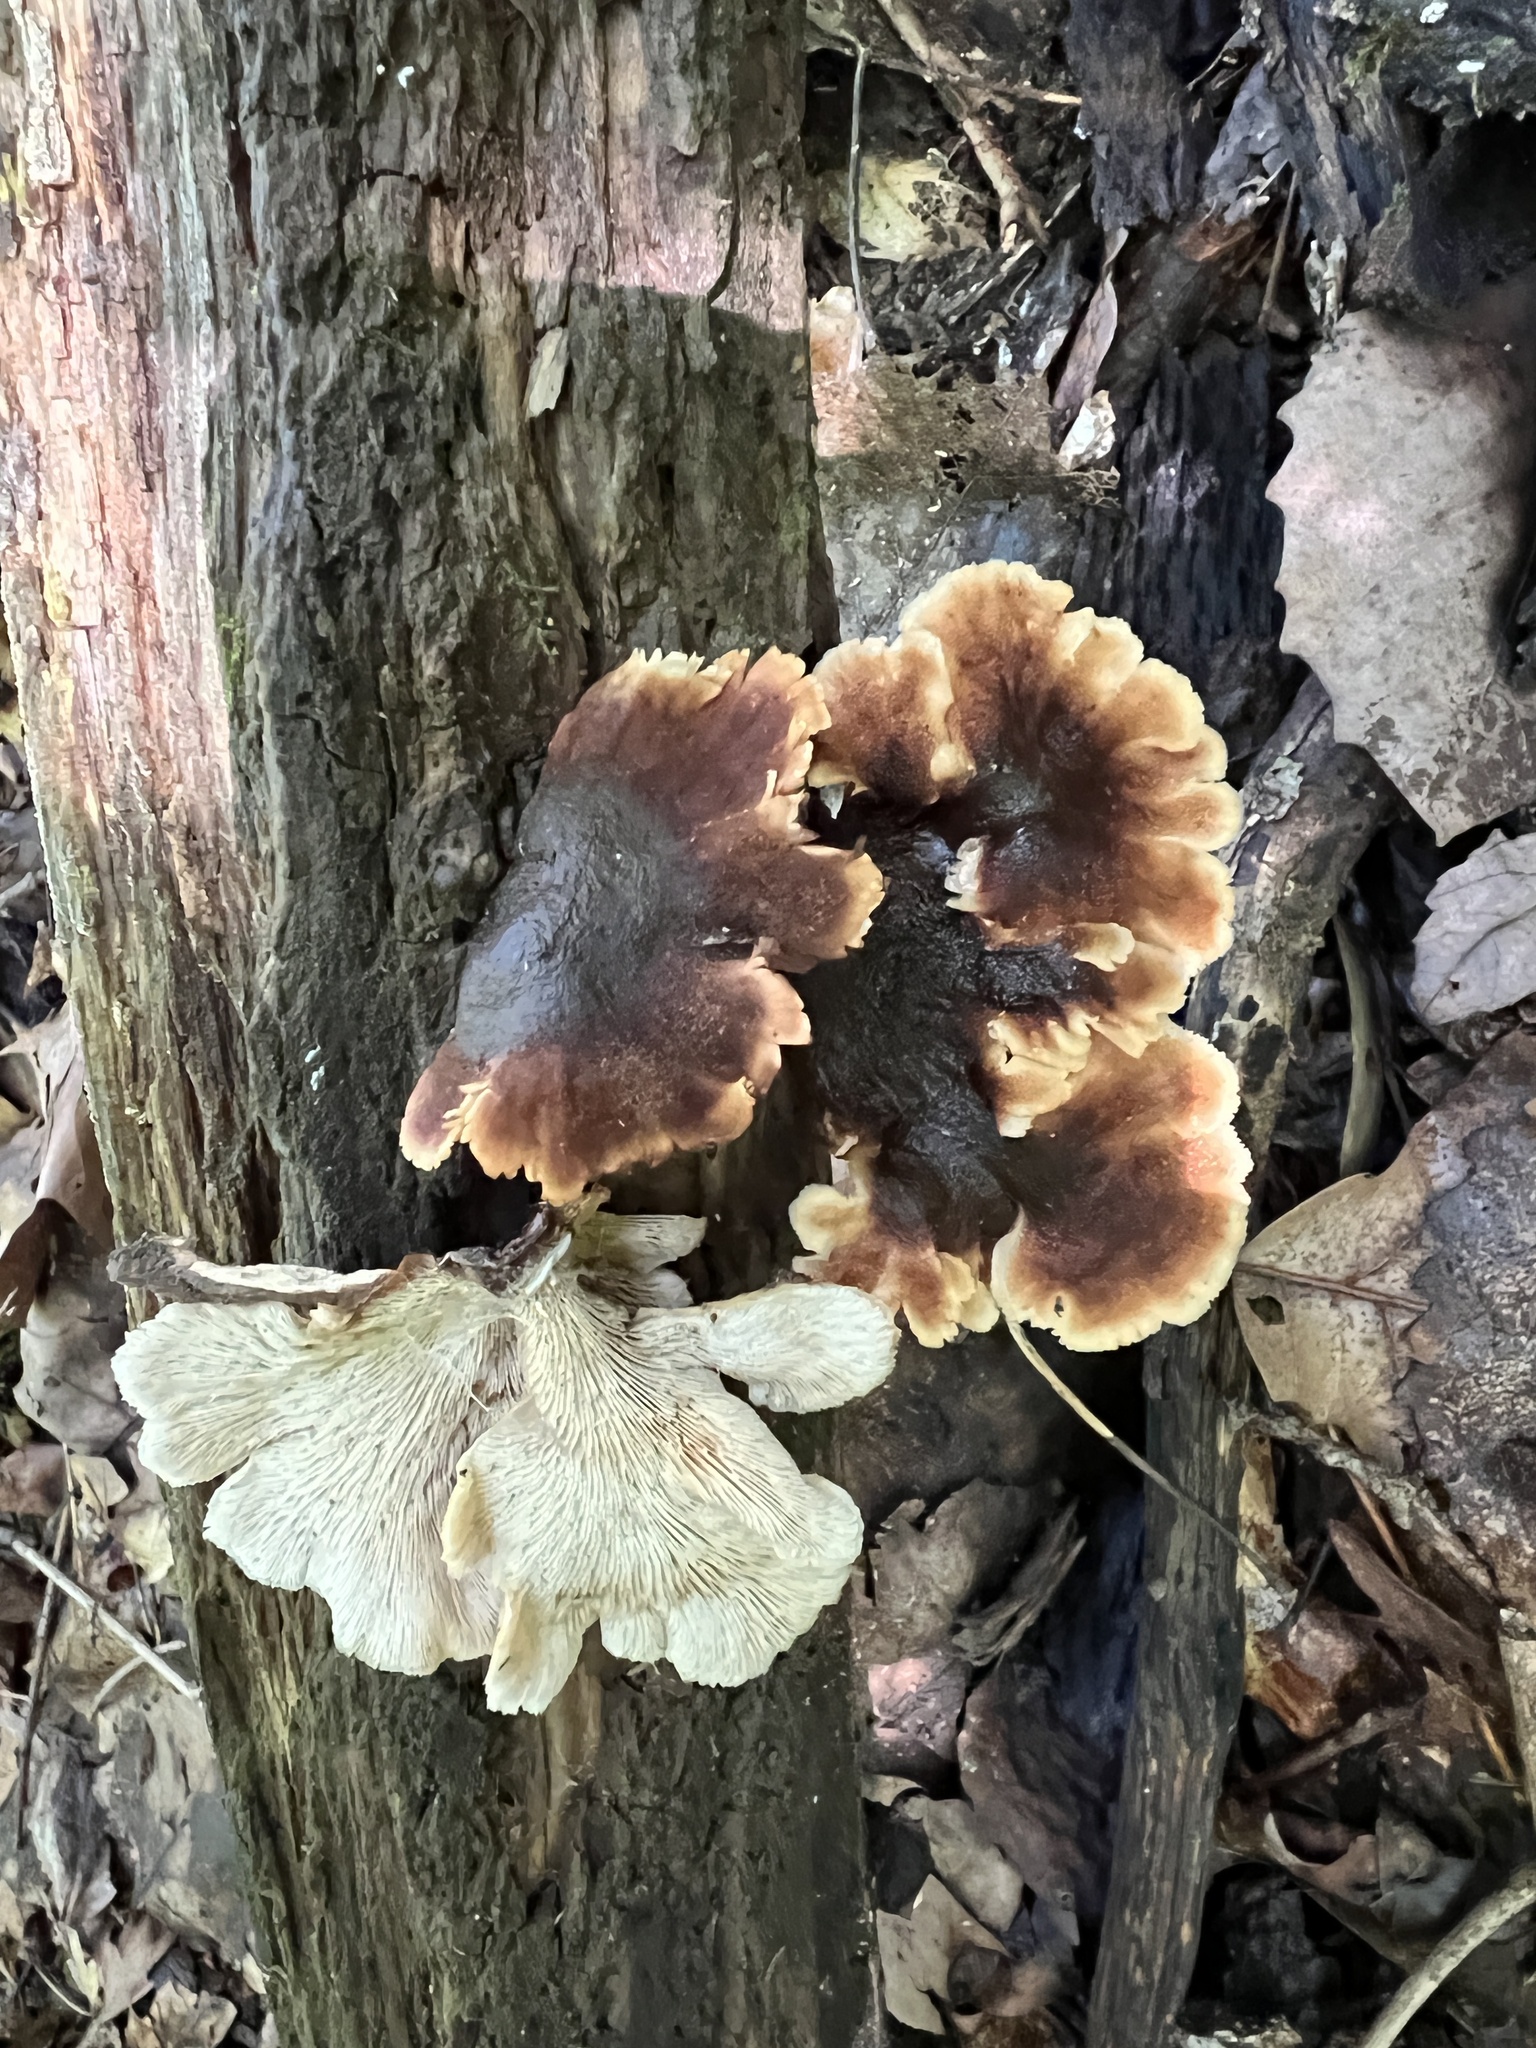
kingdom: Fungi
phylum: Basidiomycota
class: Agaricomycetes
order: Russulales
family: Auriscalpiaceae
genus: Lentinellus
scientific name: Lentinellus castoreus
